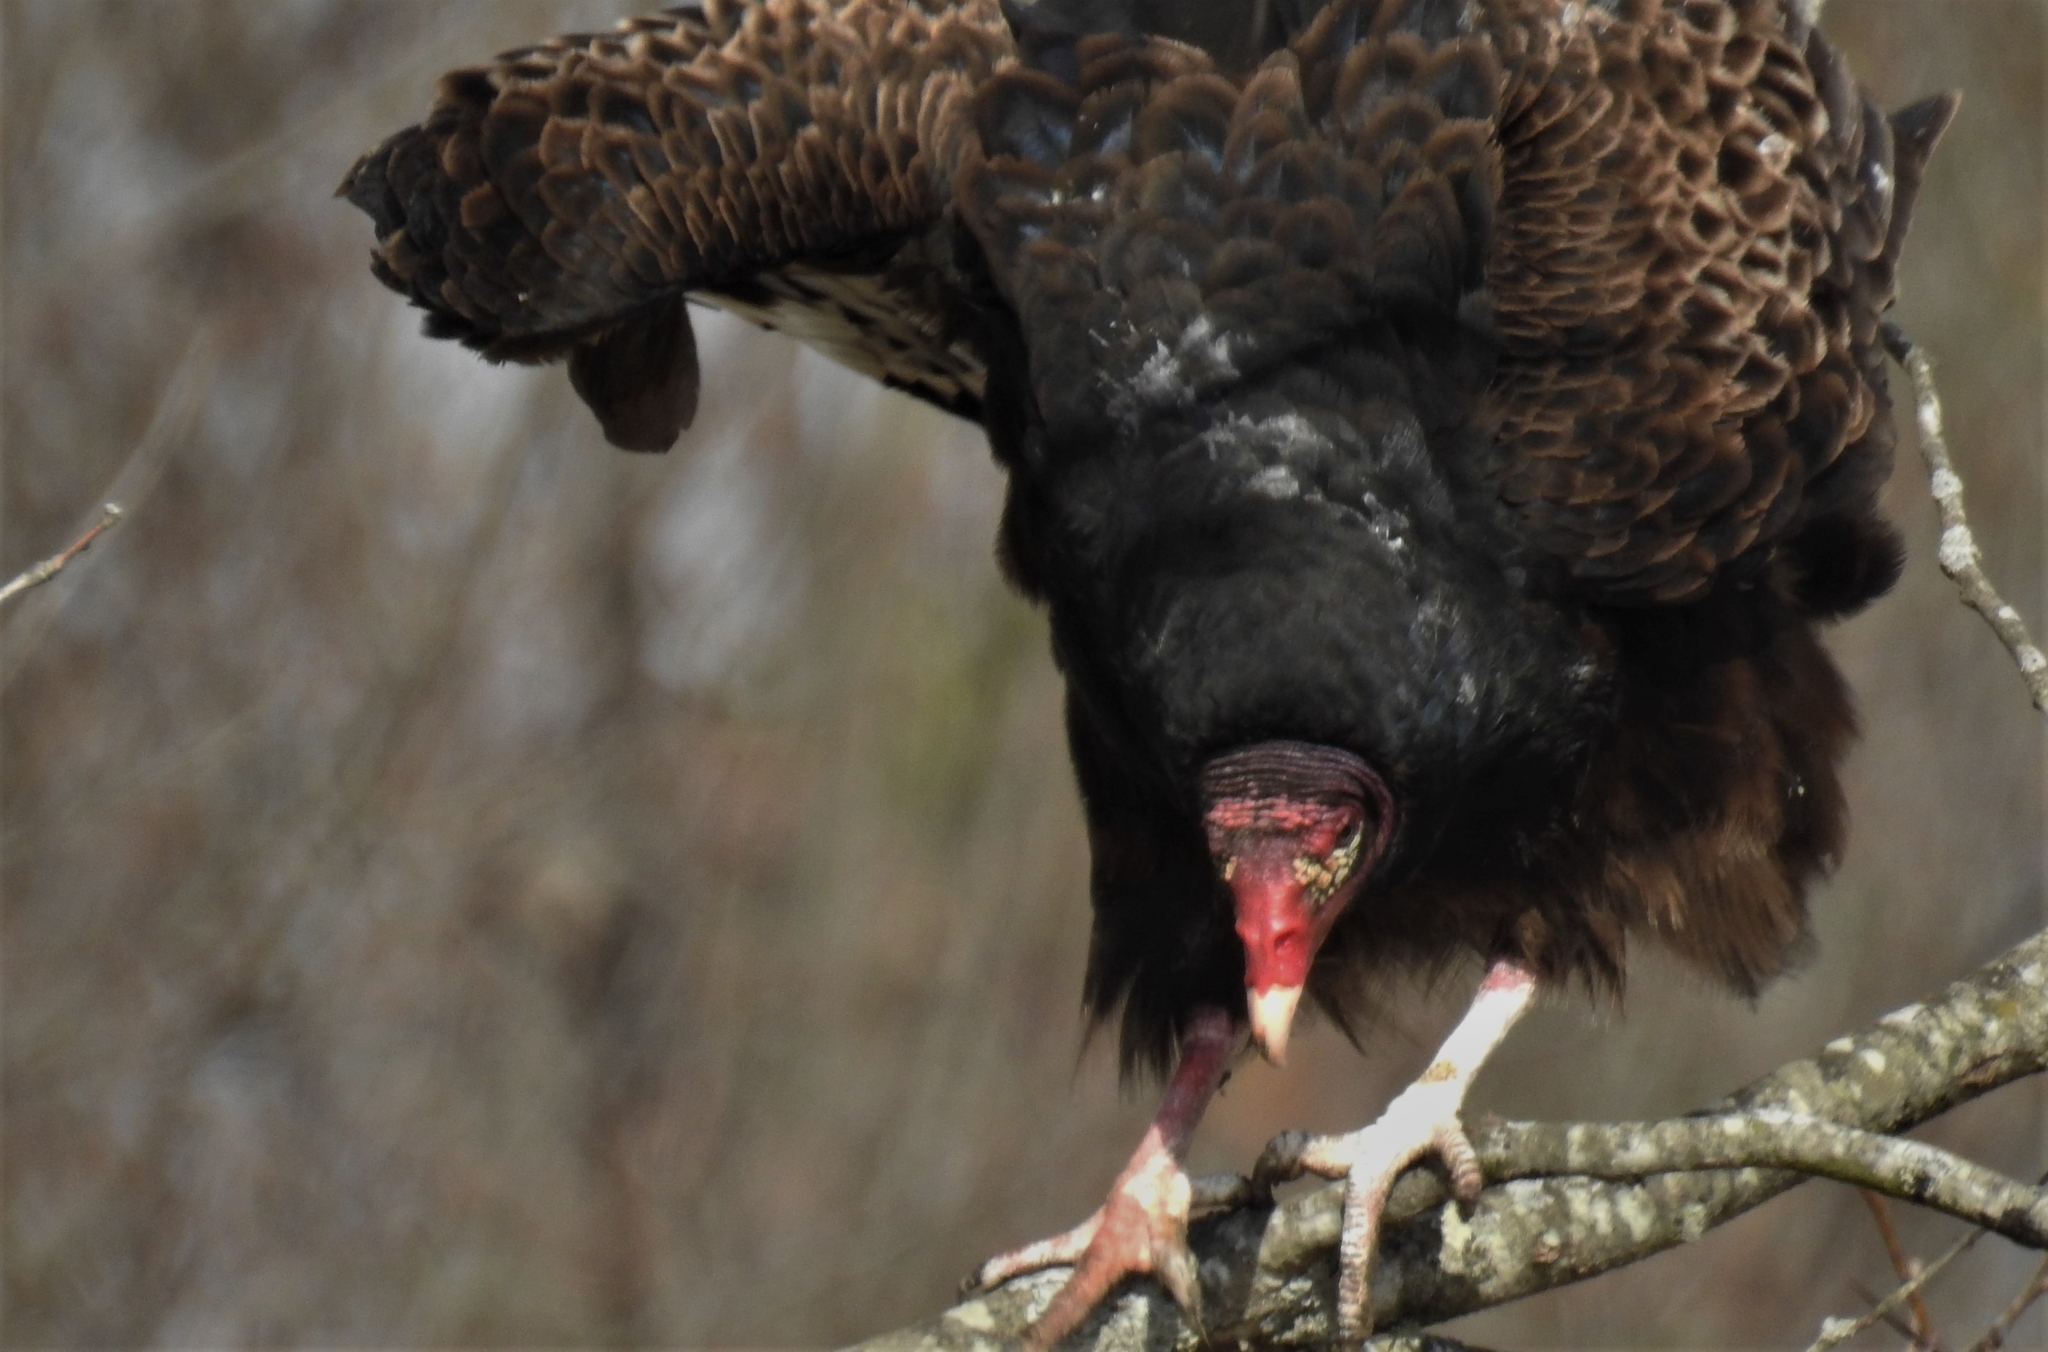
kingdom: Animalia
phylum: Chordata
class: Aves
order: Accipitriformes
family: Cathartidae
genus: Cathartes
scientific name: Cathartes aura
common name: Turkey vulture
